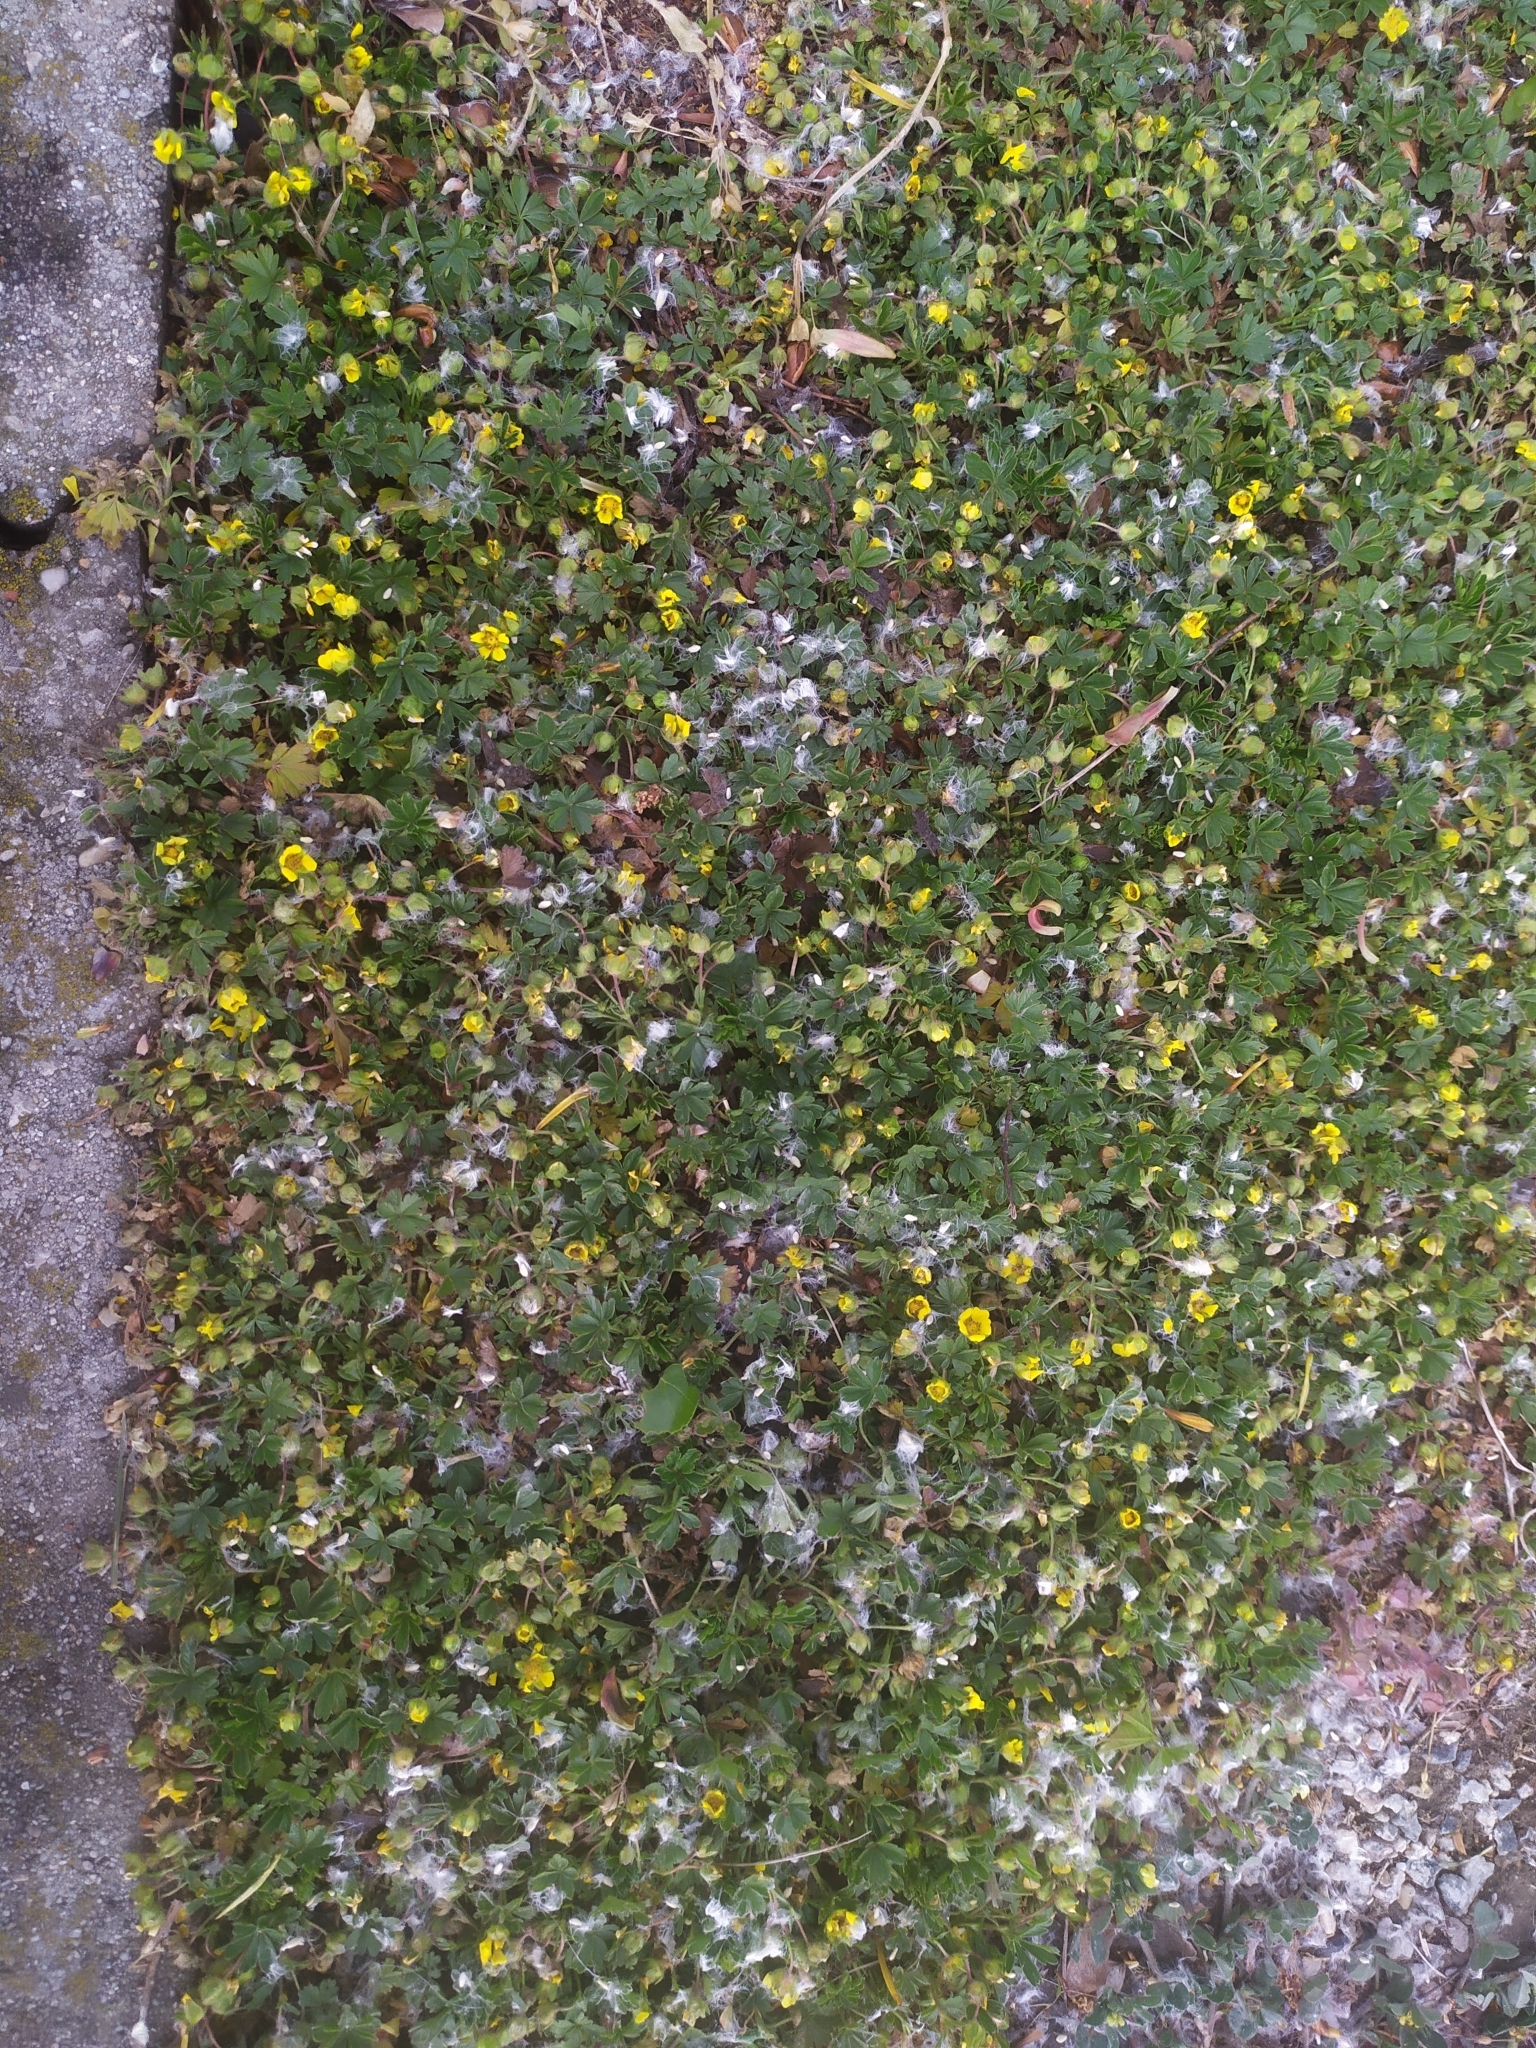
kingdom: Plantae
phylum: Tracheophyta
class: Magnoliopsida
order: Rosales
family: Rosaceae
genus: Potentilla
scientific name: Potentilla verna
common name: Spring cinquefoil
